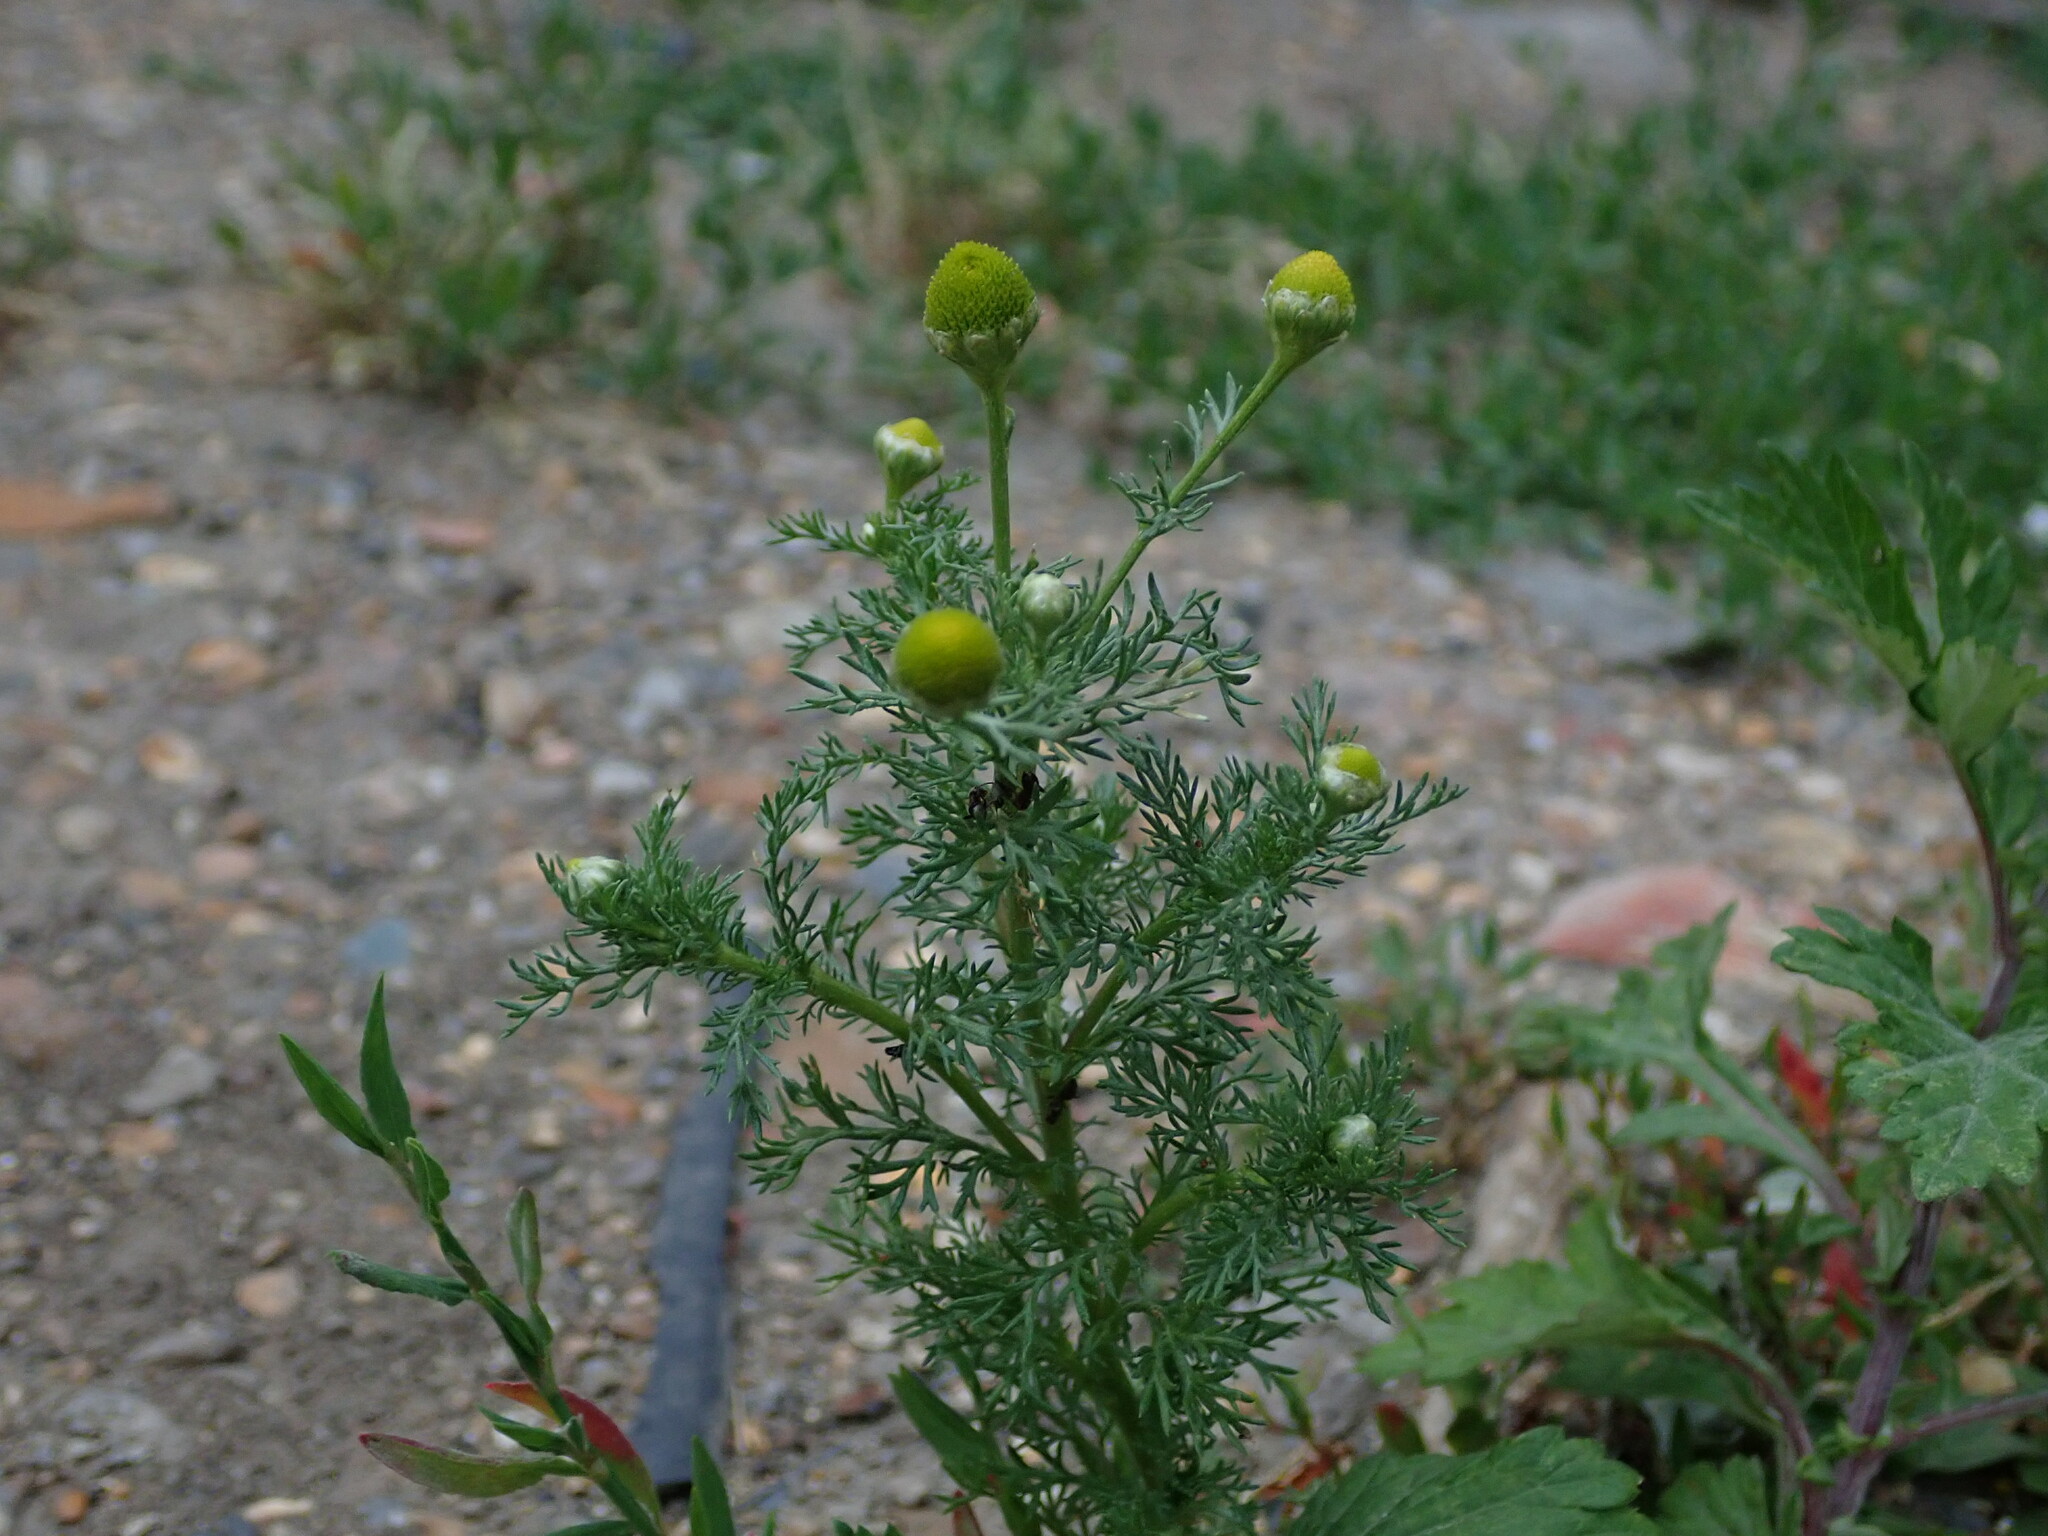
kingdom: Plantae
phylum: Tracheophyta
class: Magnoliopsida
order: Asterales
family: Asteraceae
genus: Matricaria
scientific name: Matricaria discoidea
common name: Disc mayweed
